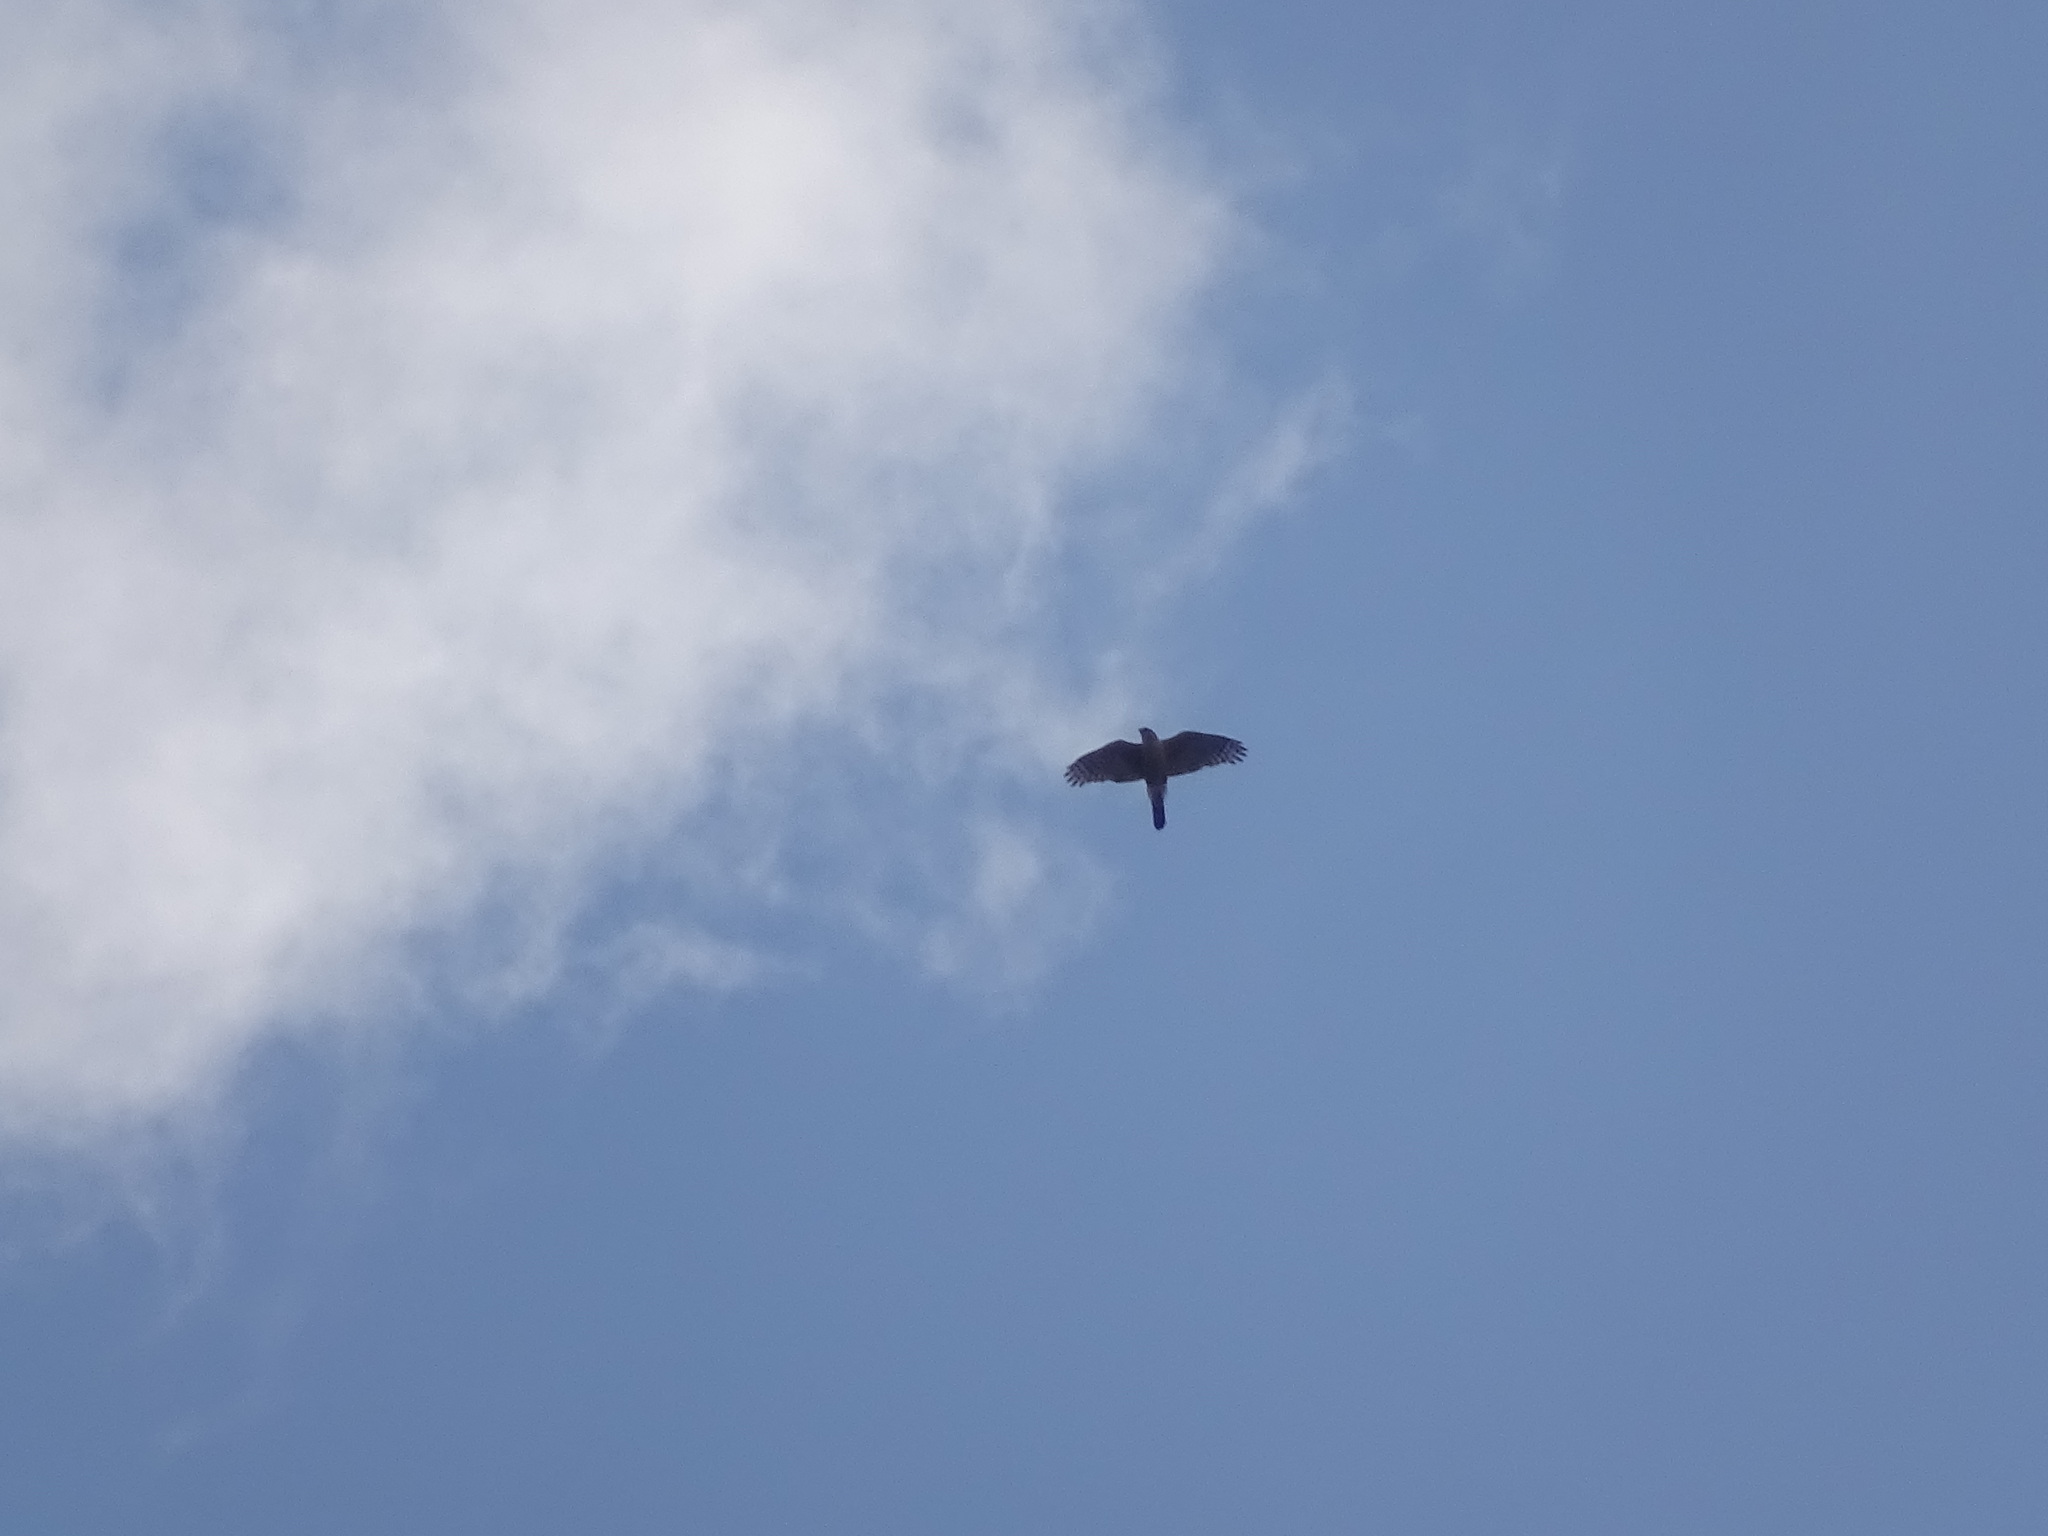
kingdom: Animalia
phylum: Chordata
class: Aves
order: Accipitriformes
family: Accipitridae
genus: Accipiter
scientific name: Accipiter cooperii
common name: Cooper's hawk
